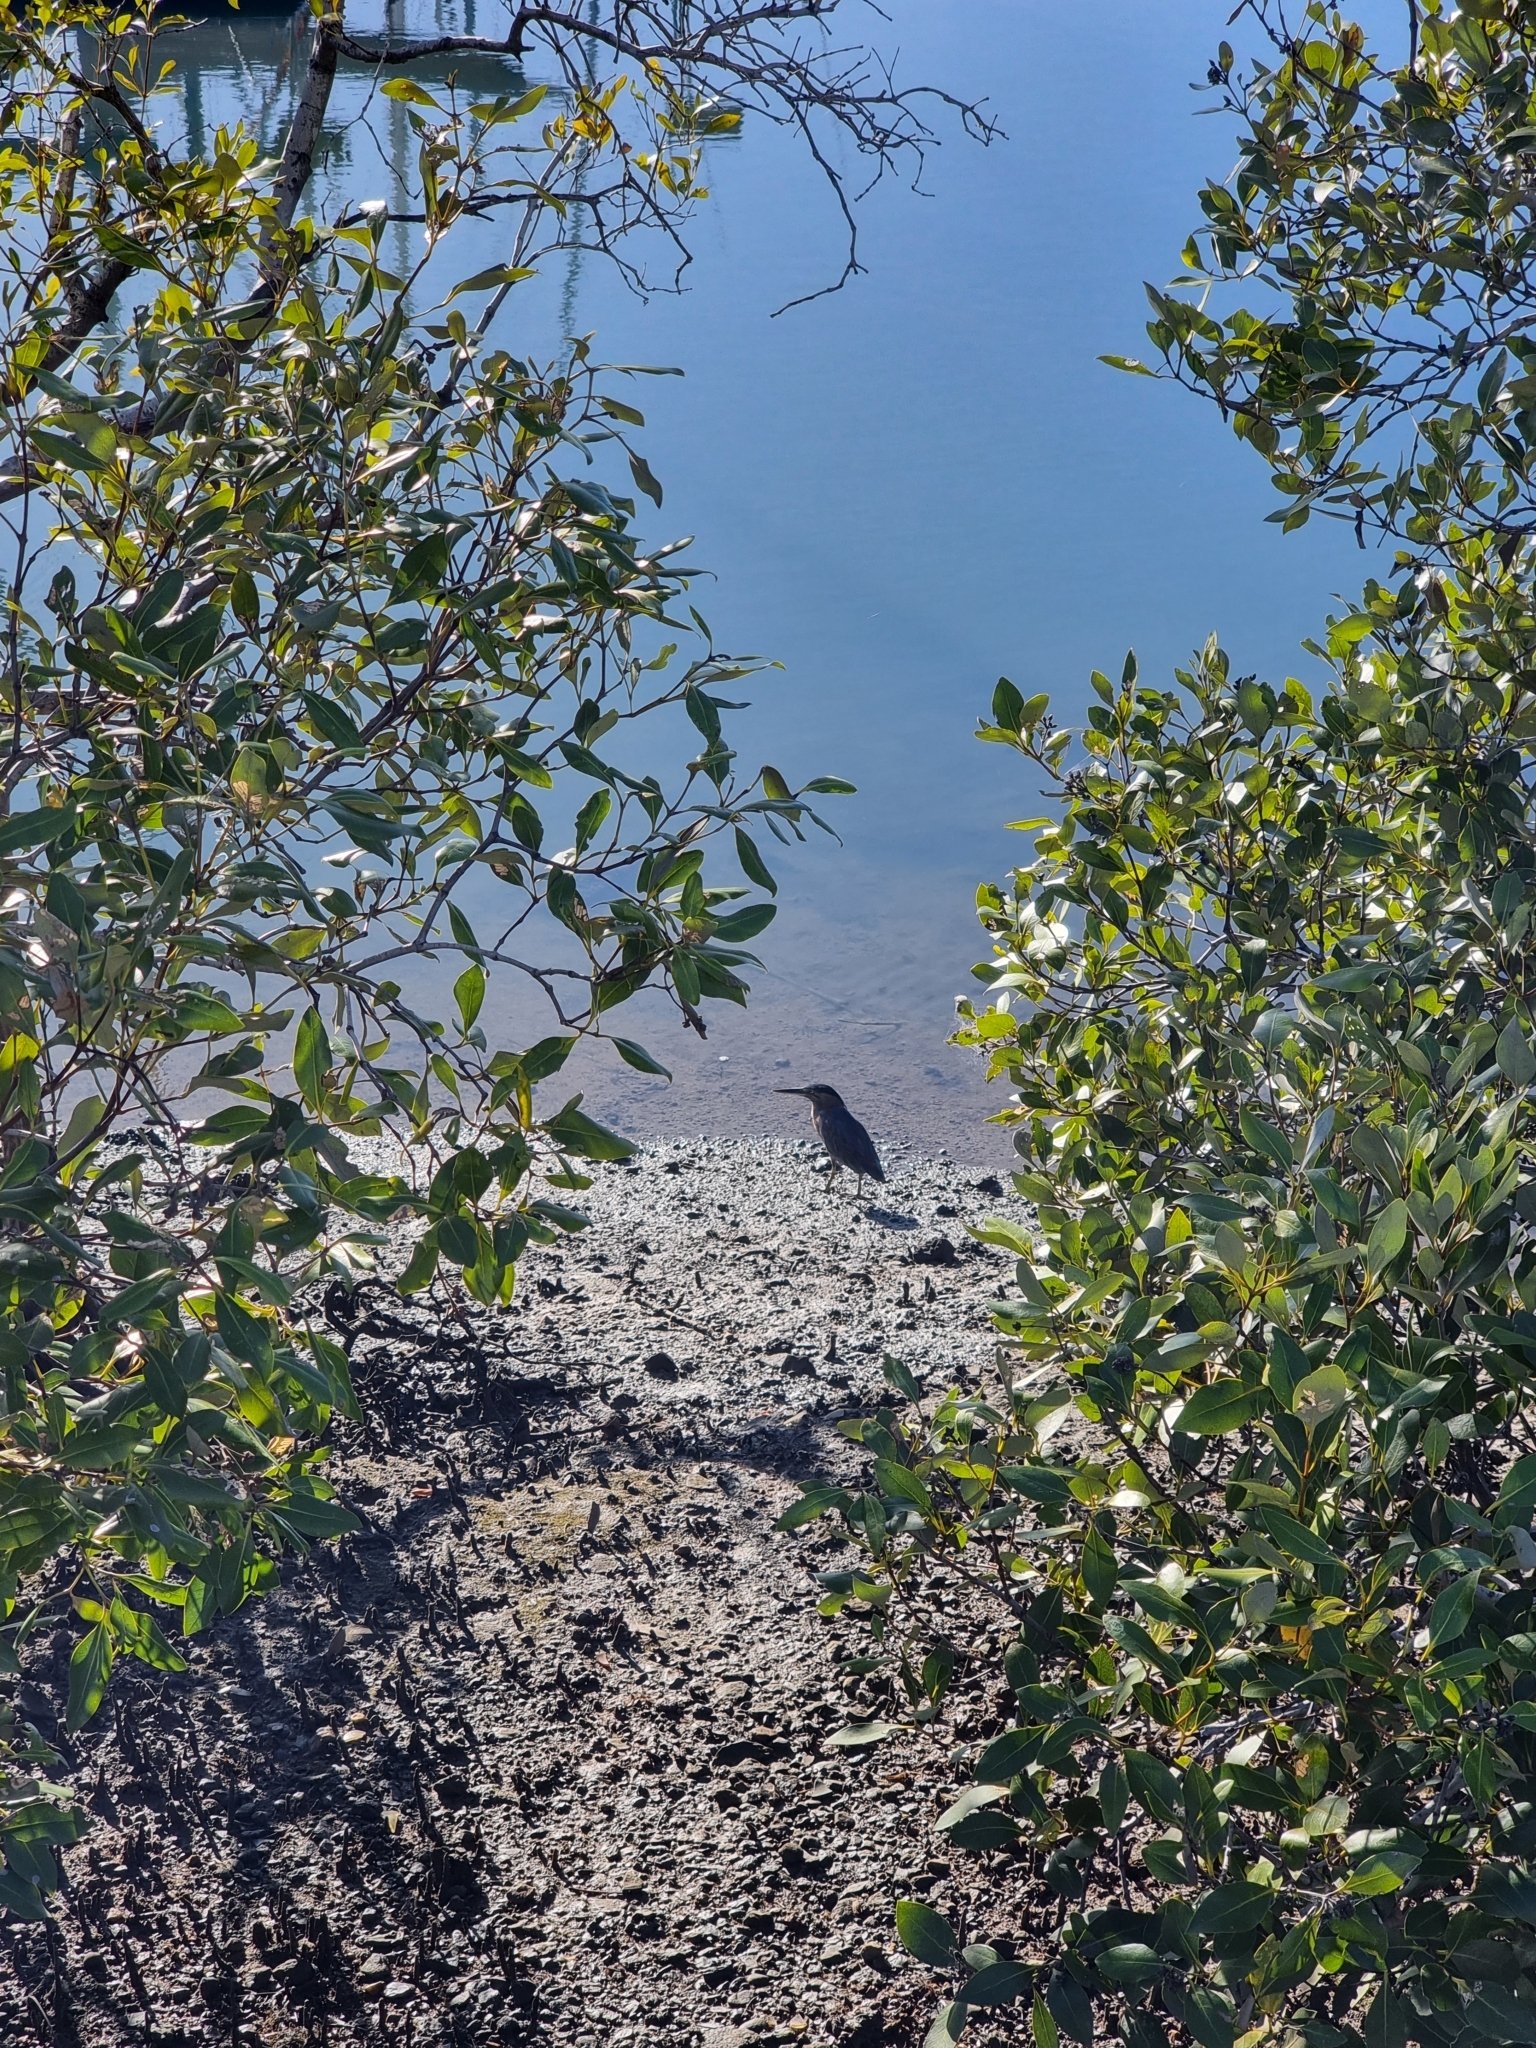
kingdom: Animalia
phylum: Chordata
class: Aves
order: Pelecaniformes
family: Ardeidae
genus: Butorides
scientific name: Butorides striata
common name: Striated heron
